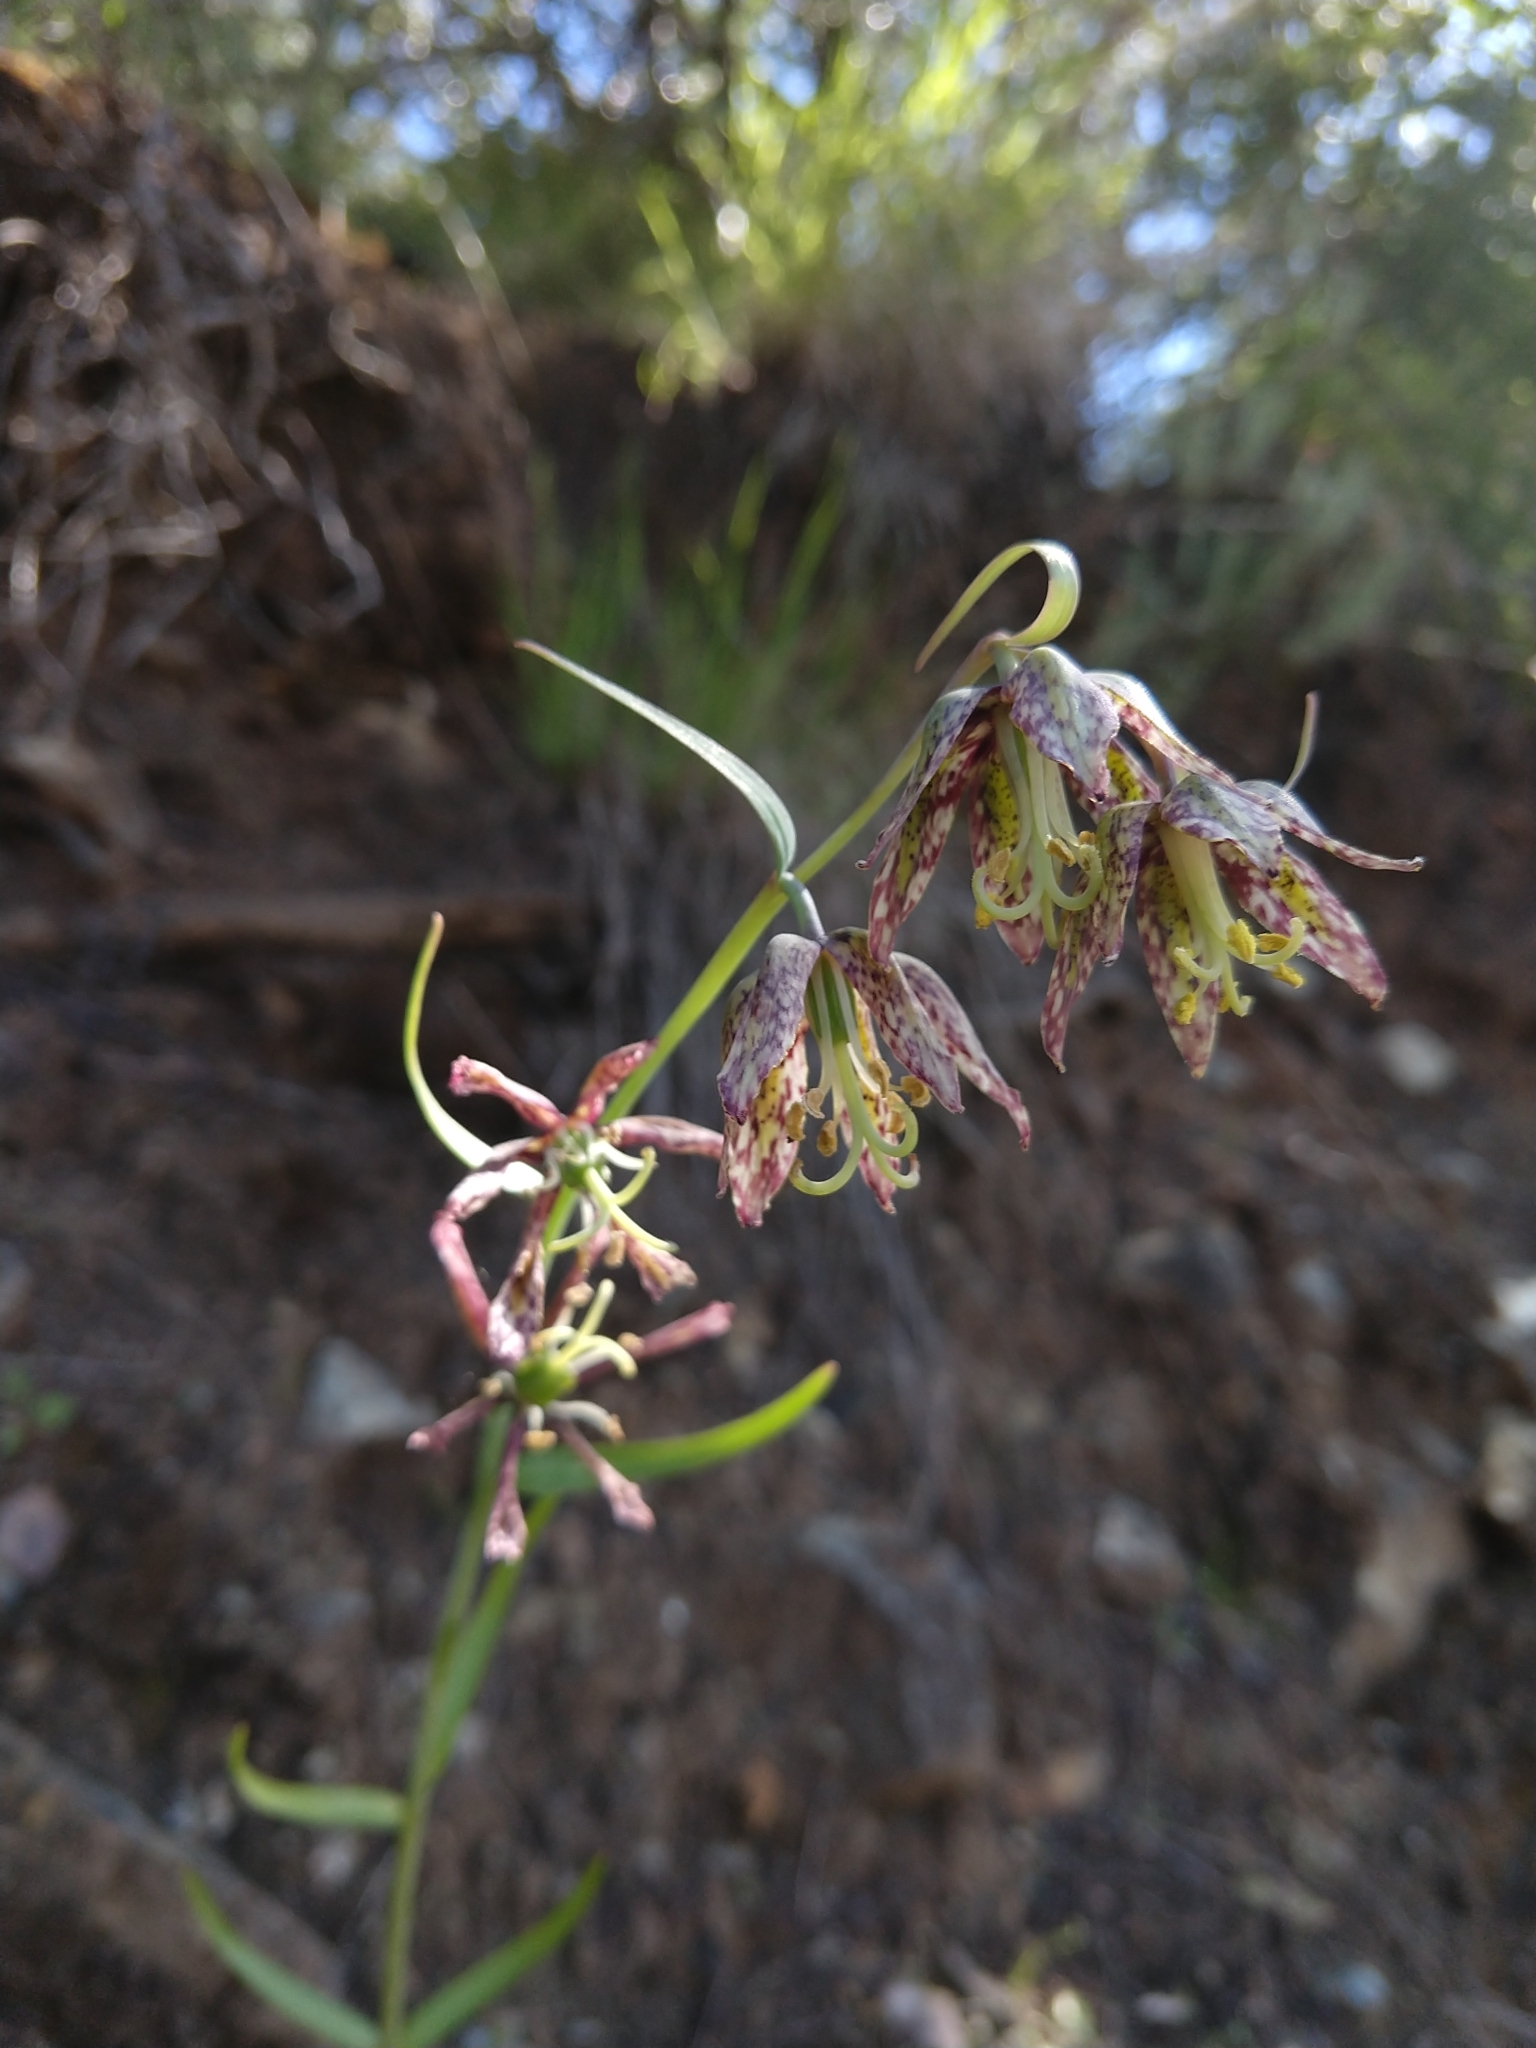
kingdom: Plantae
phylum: Tracheophyta
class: Liliopsida
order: Liliales
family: Liliaceae
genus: Fritillaria
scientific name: Fritillaria affinis
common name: Ojai fritillary
